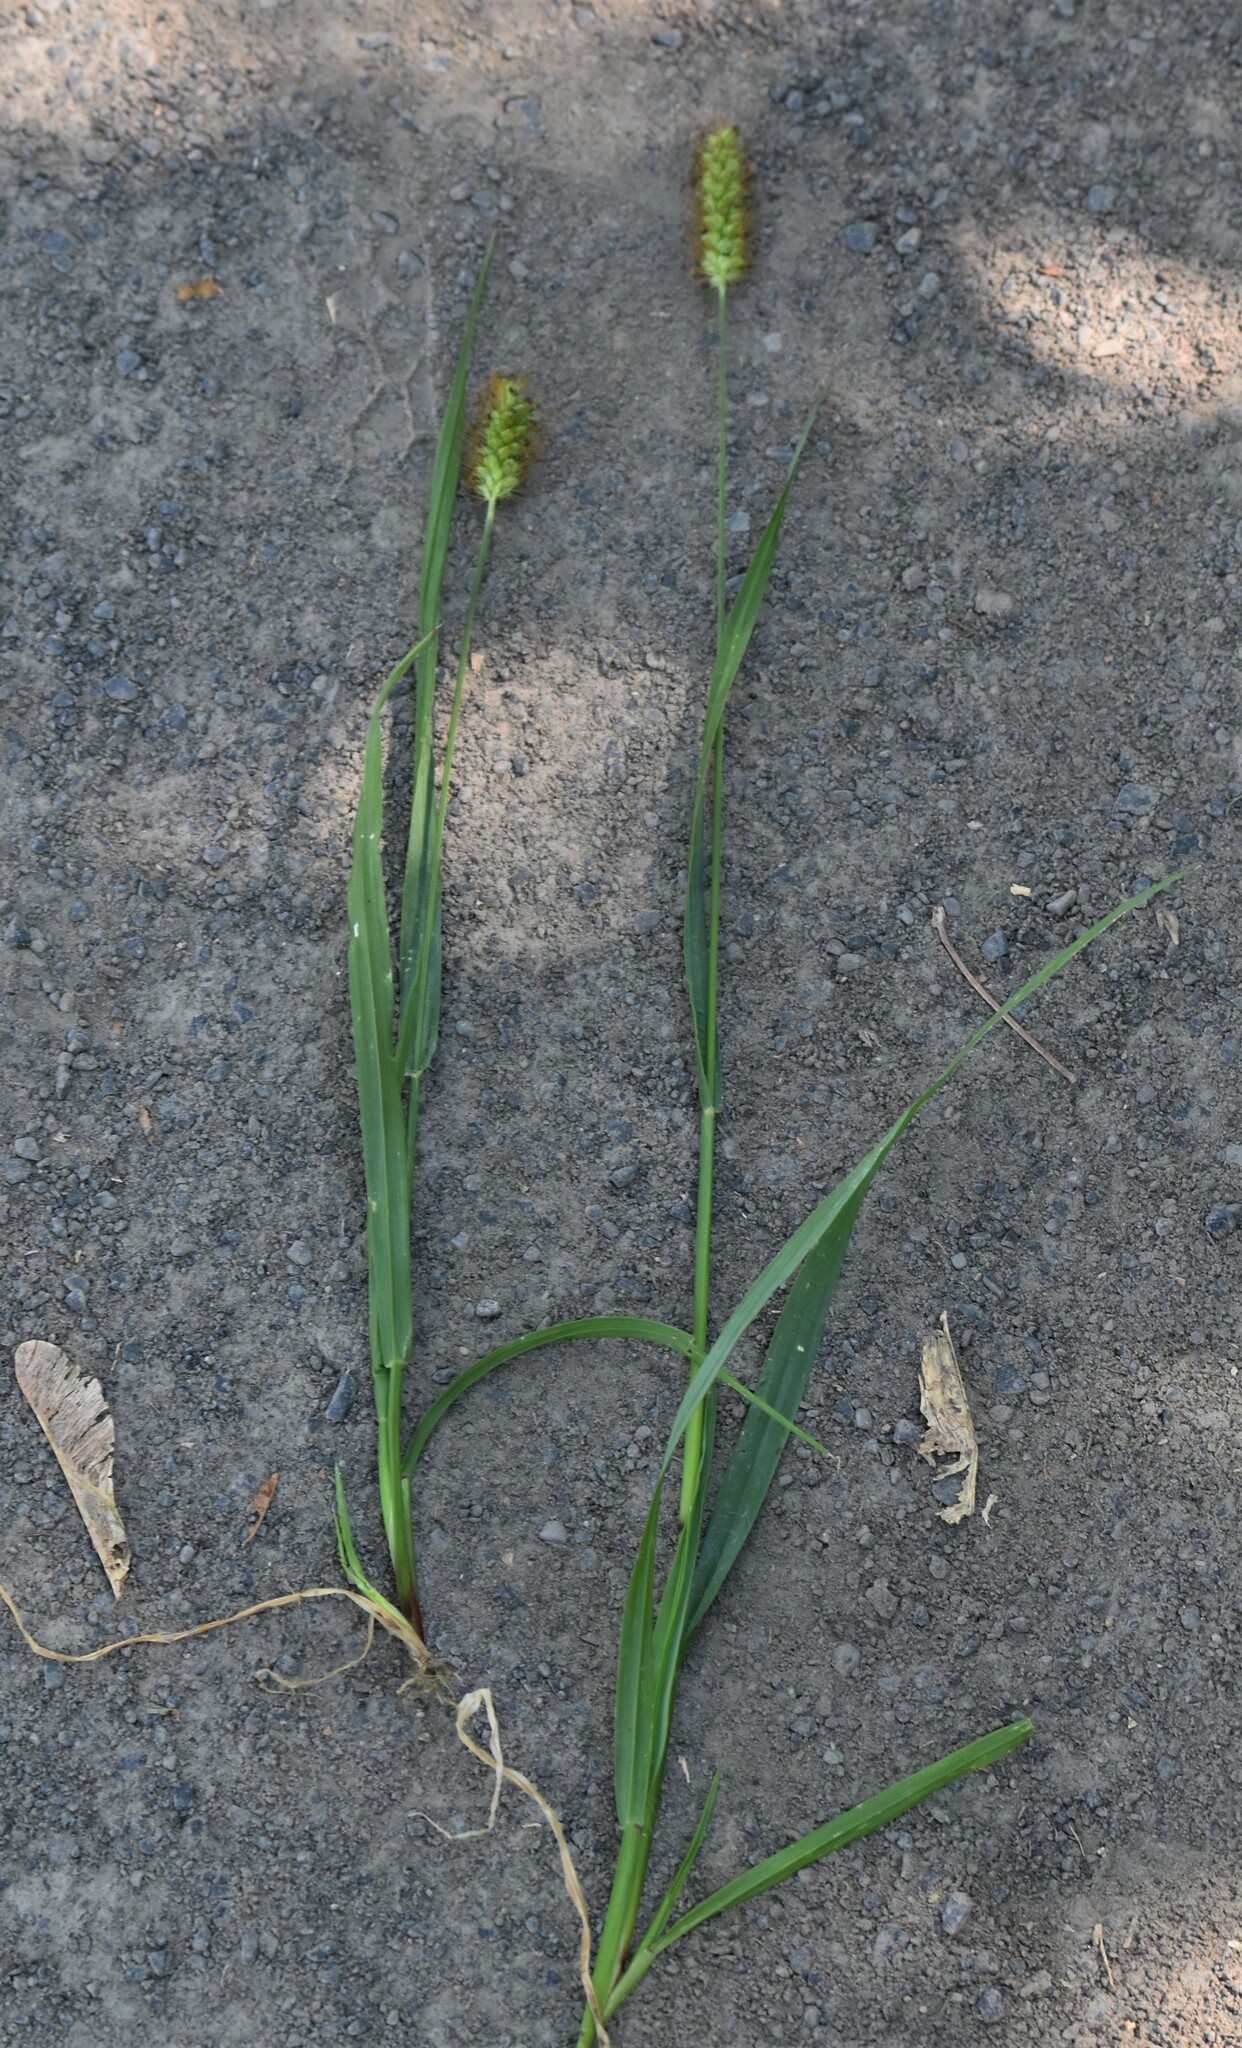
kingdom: Plantae
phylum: Tracheophyta
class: Liliopsida
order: Poales
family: Poaceae
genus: Setaria
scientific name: Setaria pumila
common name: Yellow bristle-grass
